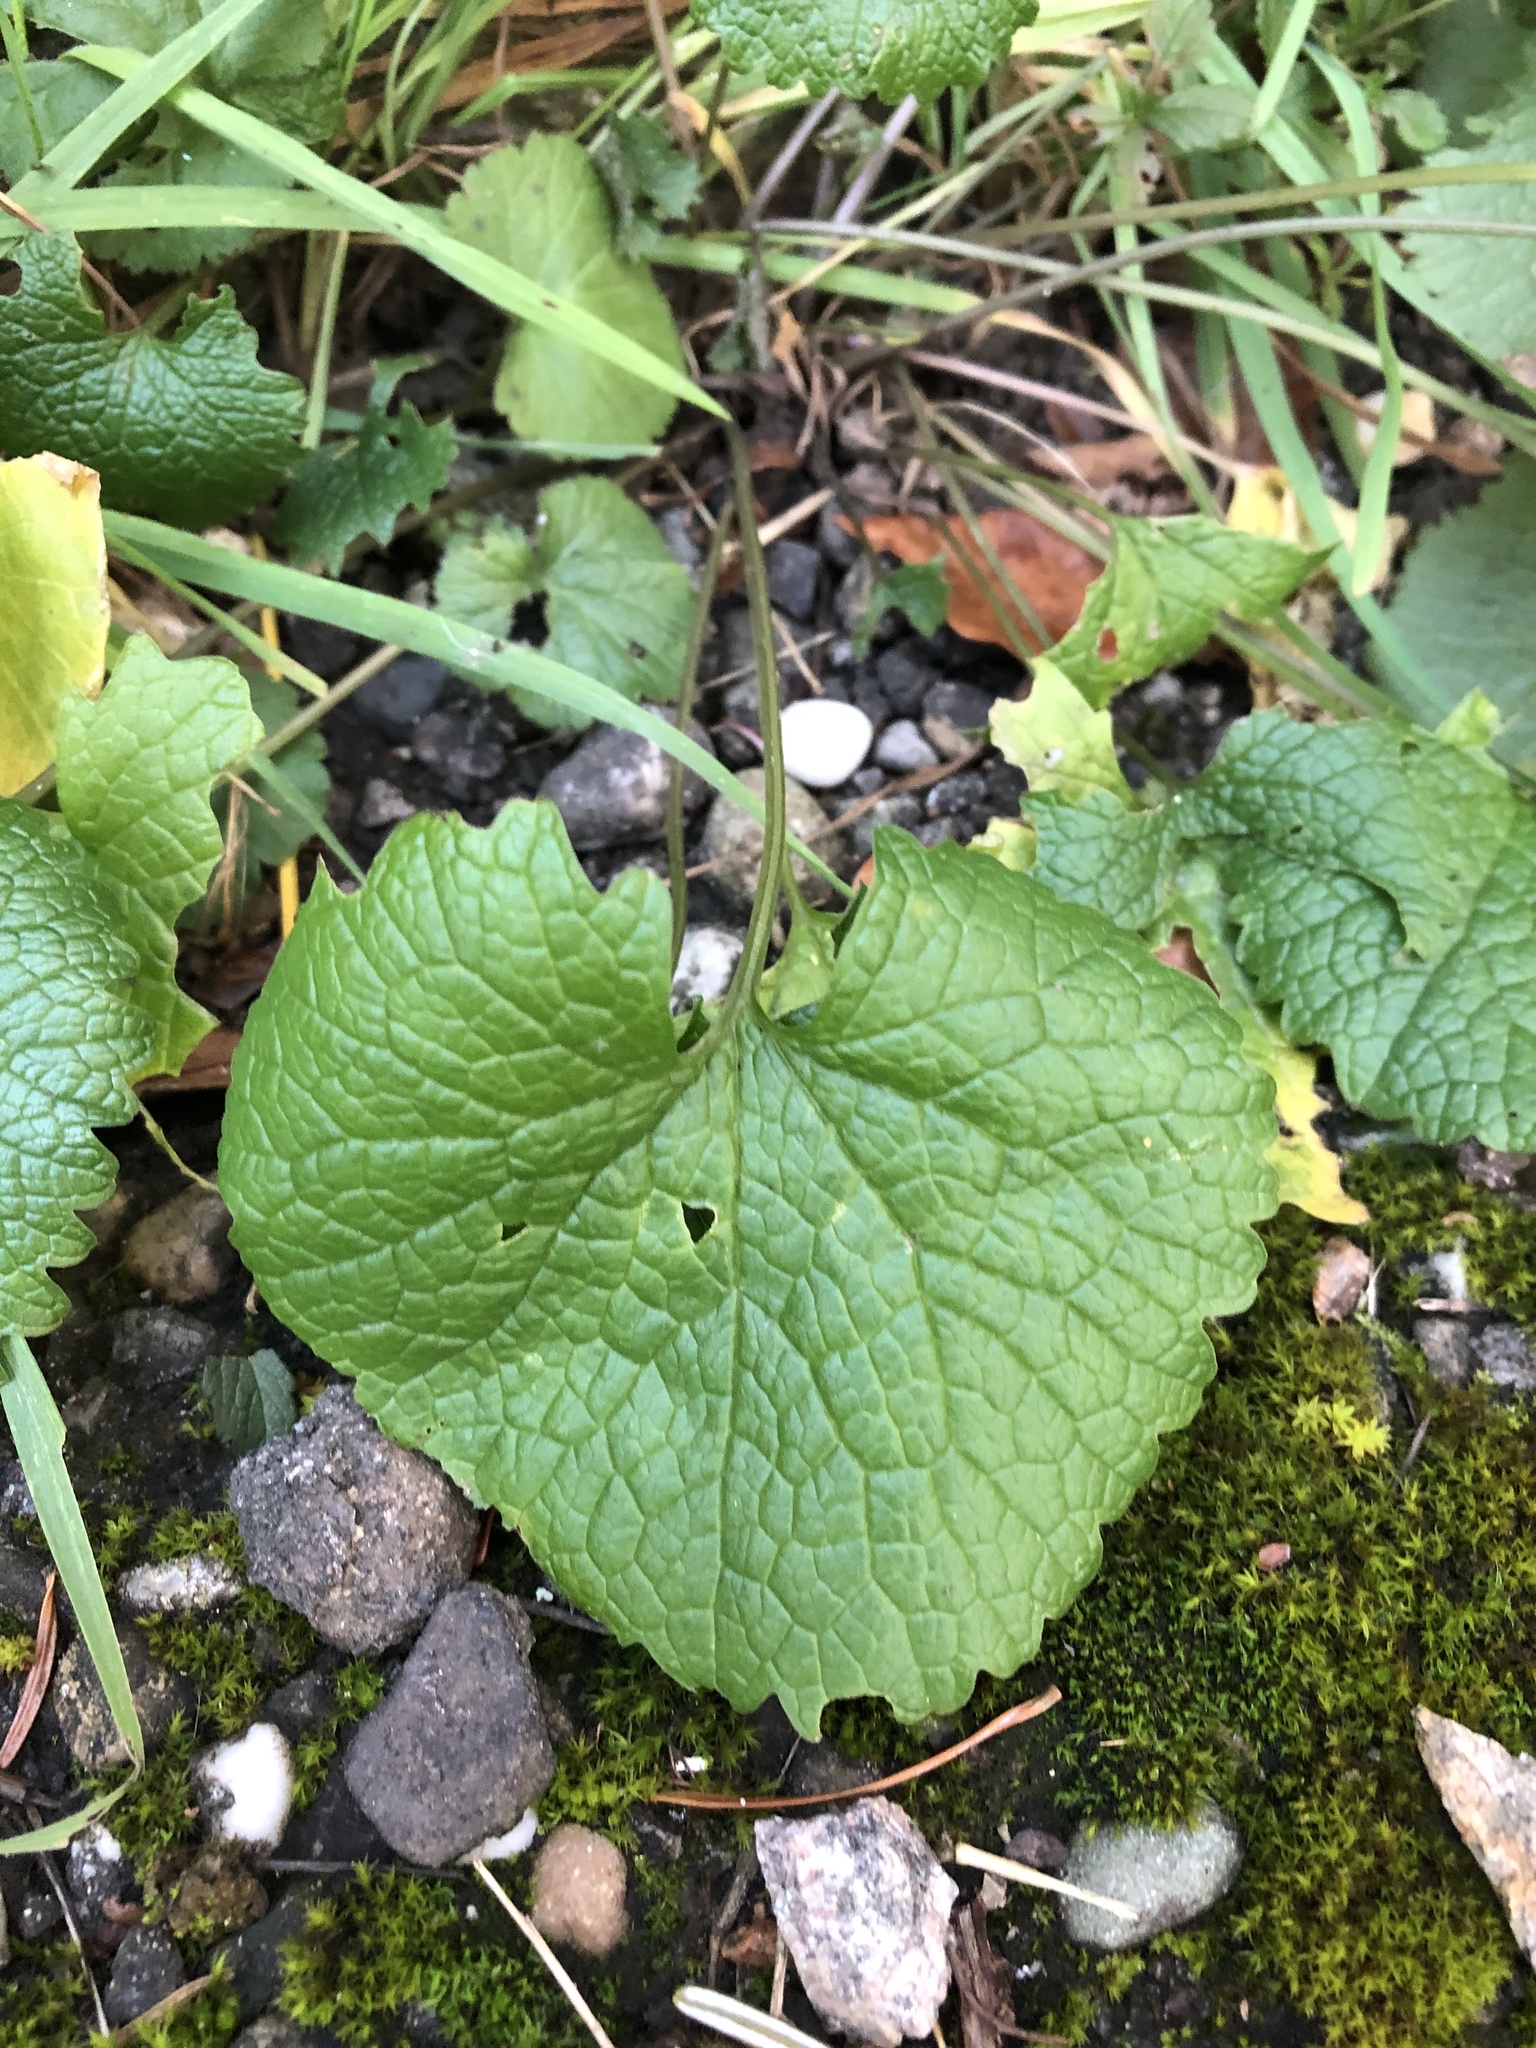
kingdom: Plantae
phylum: Tracheophyta
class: Magnoliopsida
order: Brassicales
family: Brassicaceae
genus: Alliaria
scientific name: Alliaria petiolata
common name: Garlic mustard
